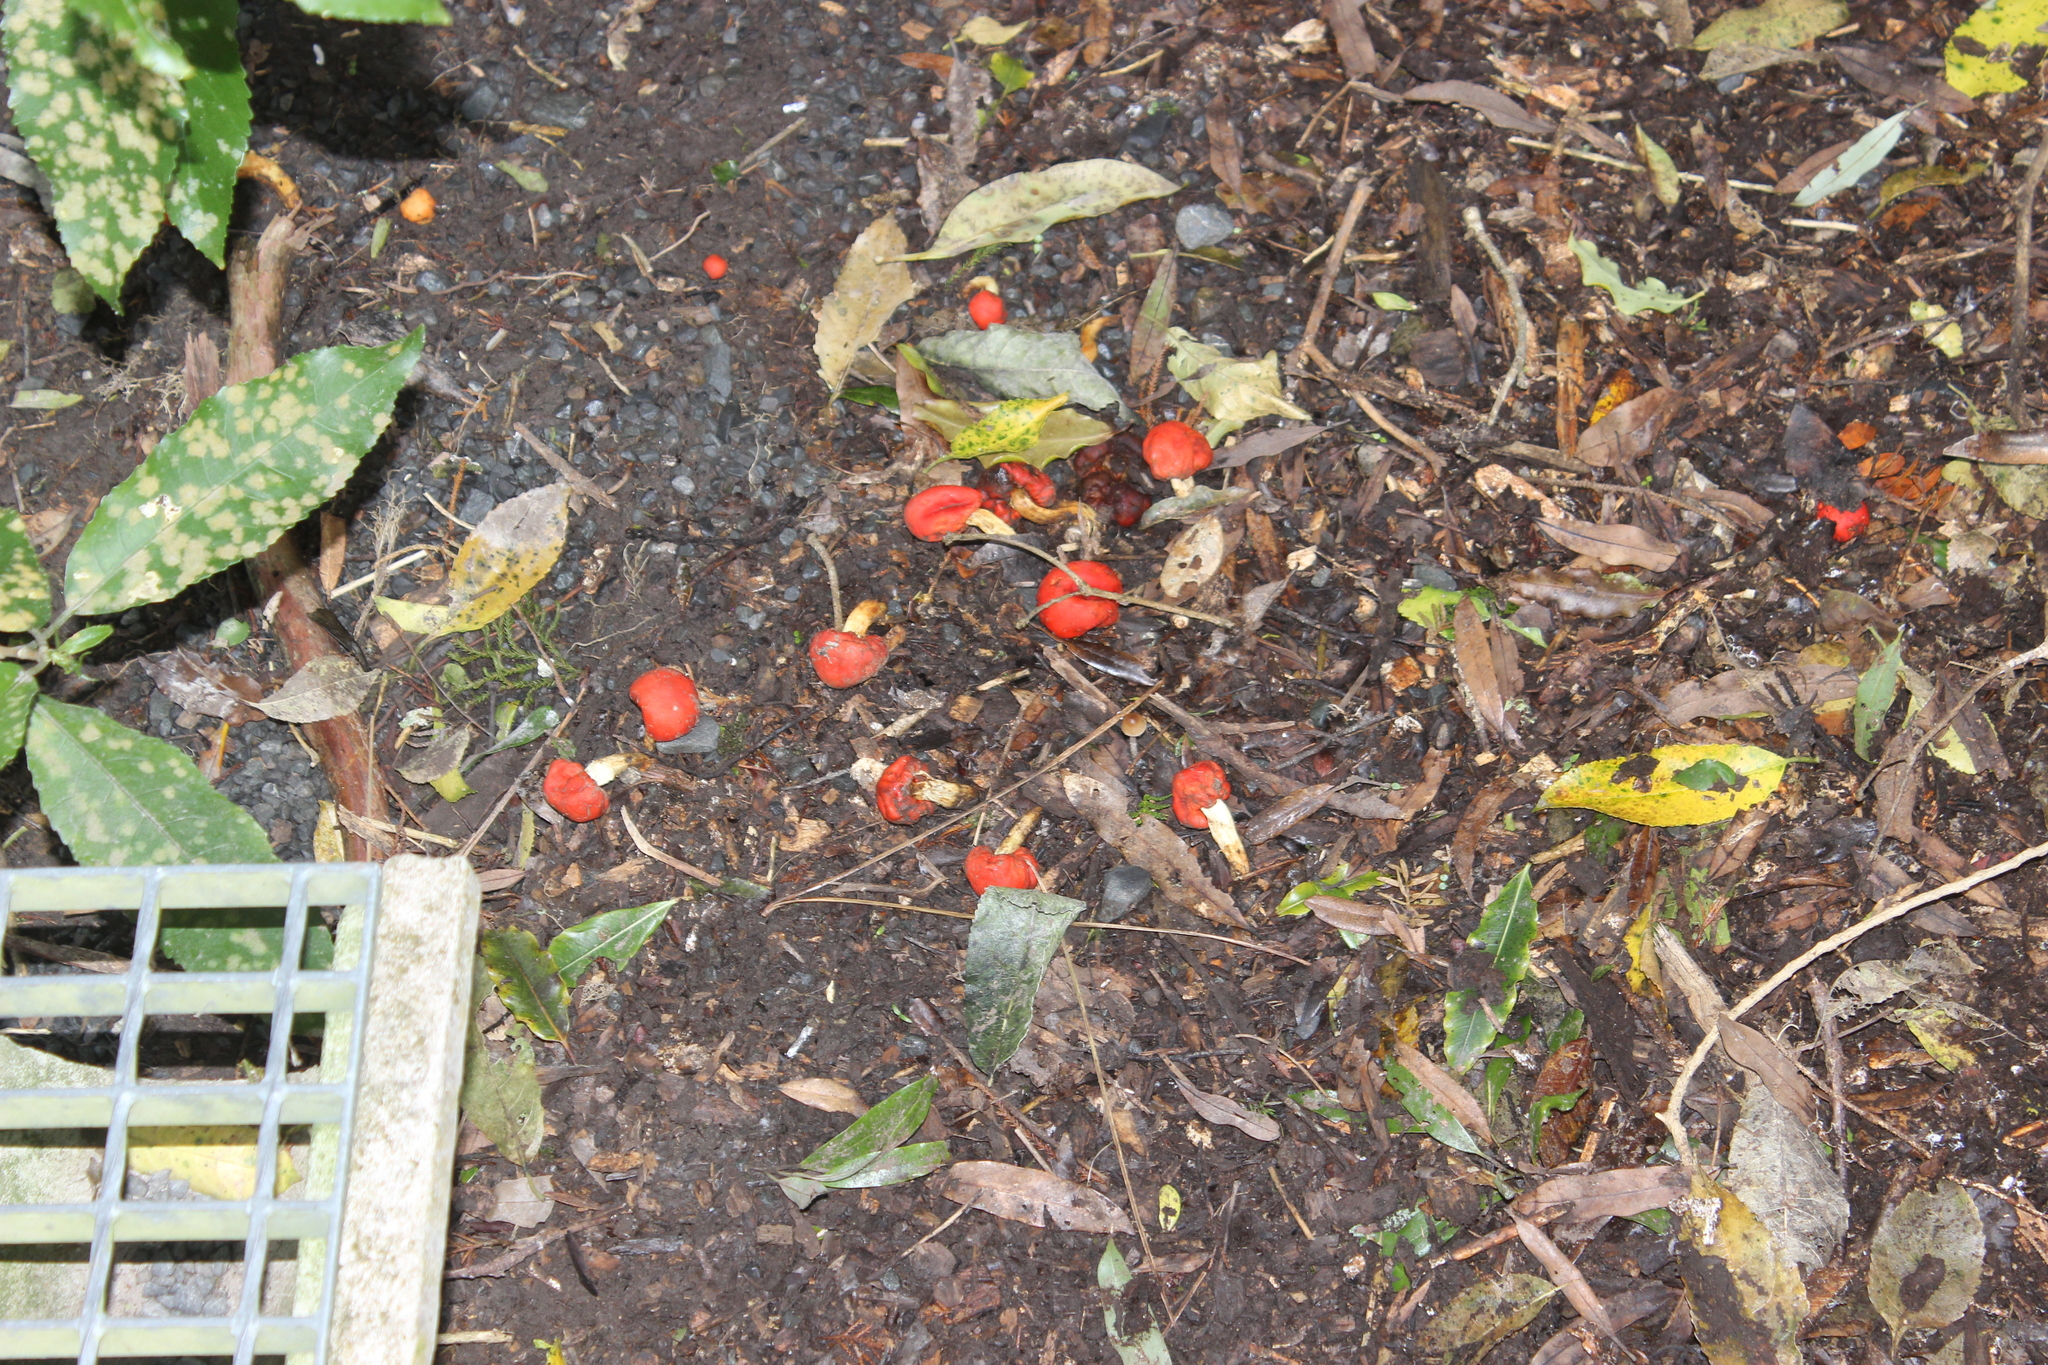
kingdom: Fungi
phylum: Basidiomycota
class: Agaricomycetes
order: Agaricales
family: Strophariaceae
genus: Leratiomyces
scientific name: Leratiomyces erythrocephalus
